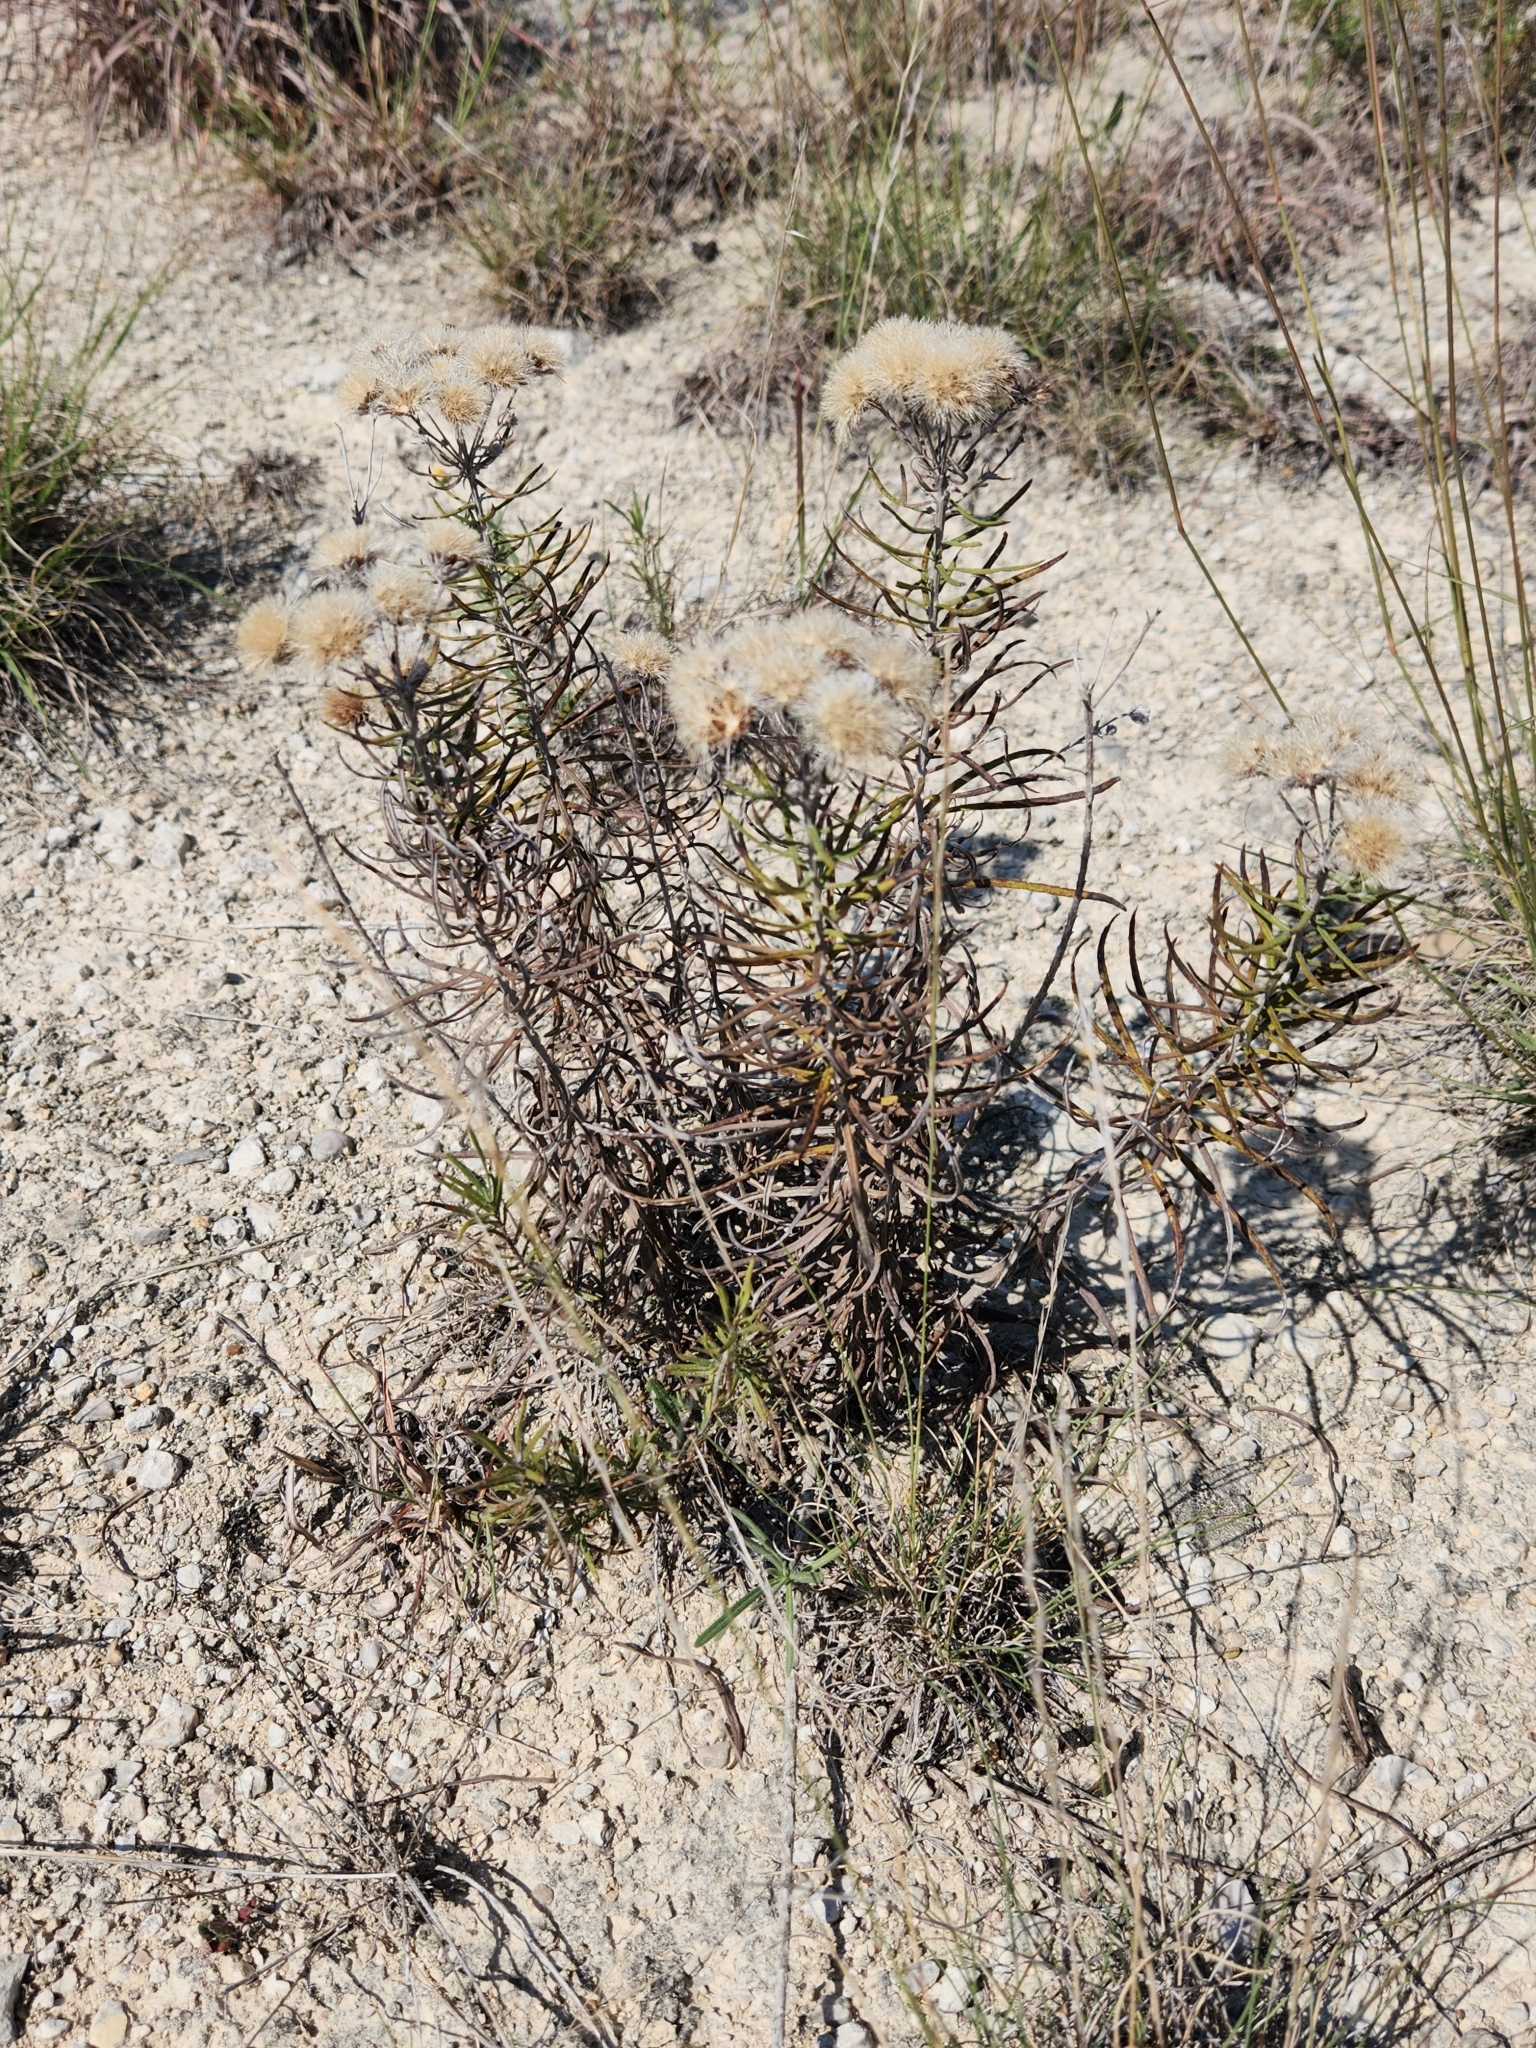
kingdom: Plantae
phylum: Tracheophyta
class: Magnoliopsida
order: Asterales
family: Asteraceae
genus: Vernonia
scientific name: Vernonia lindheimeri
